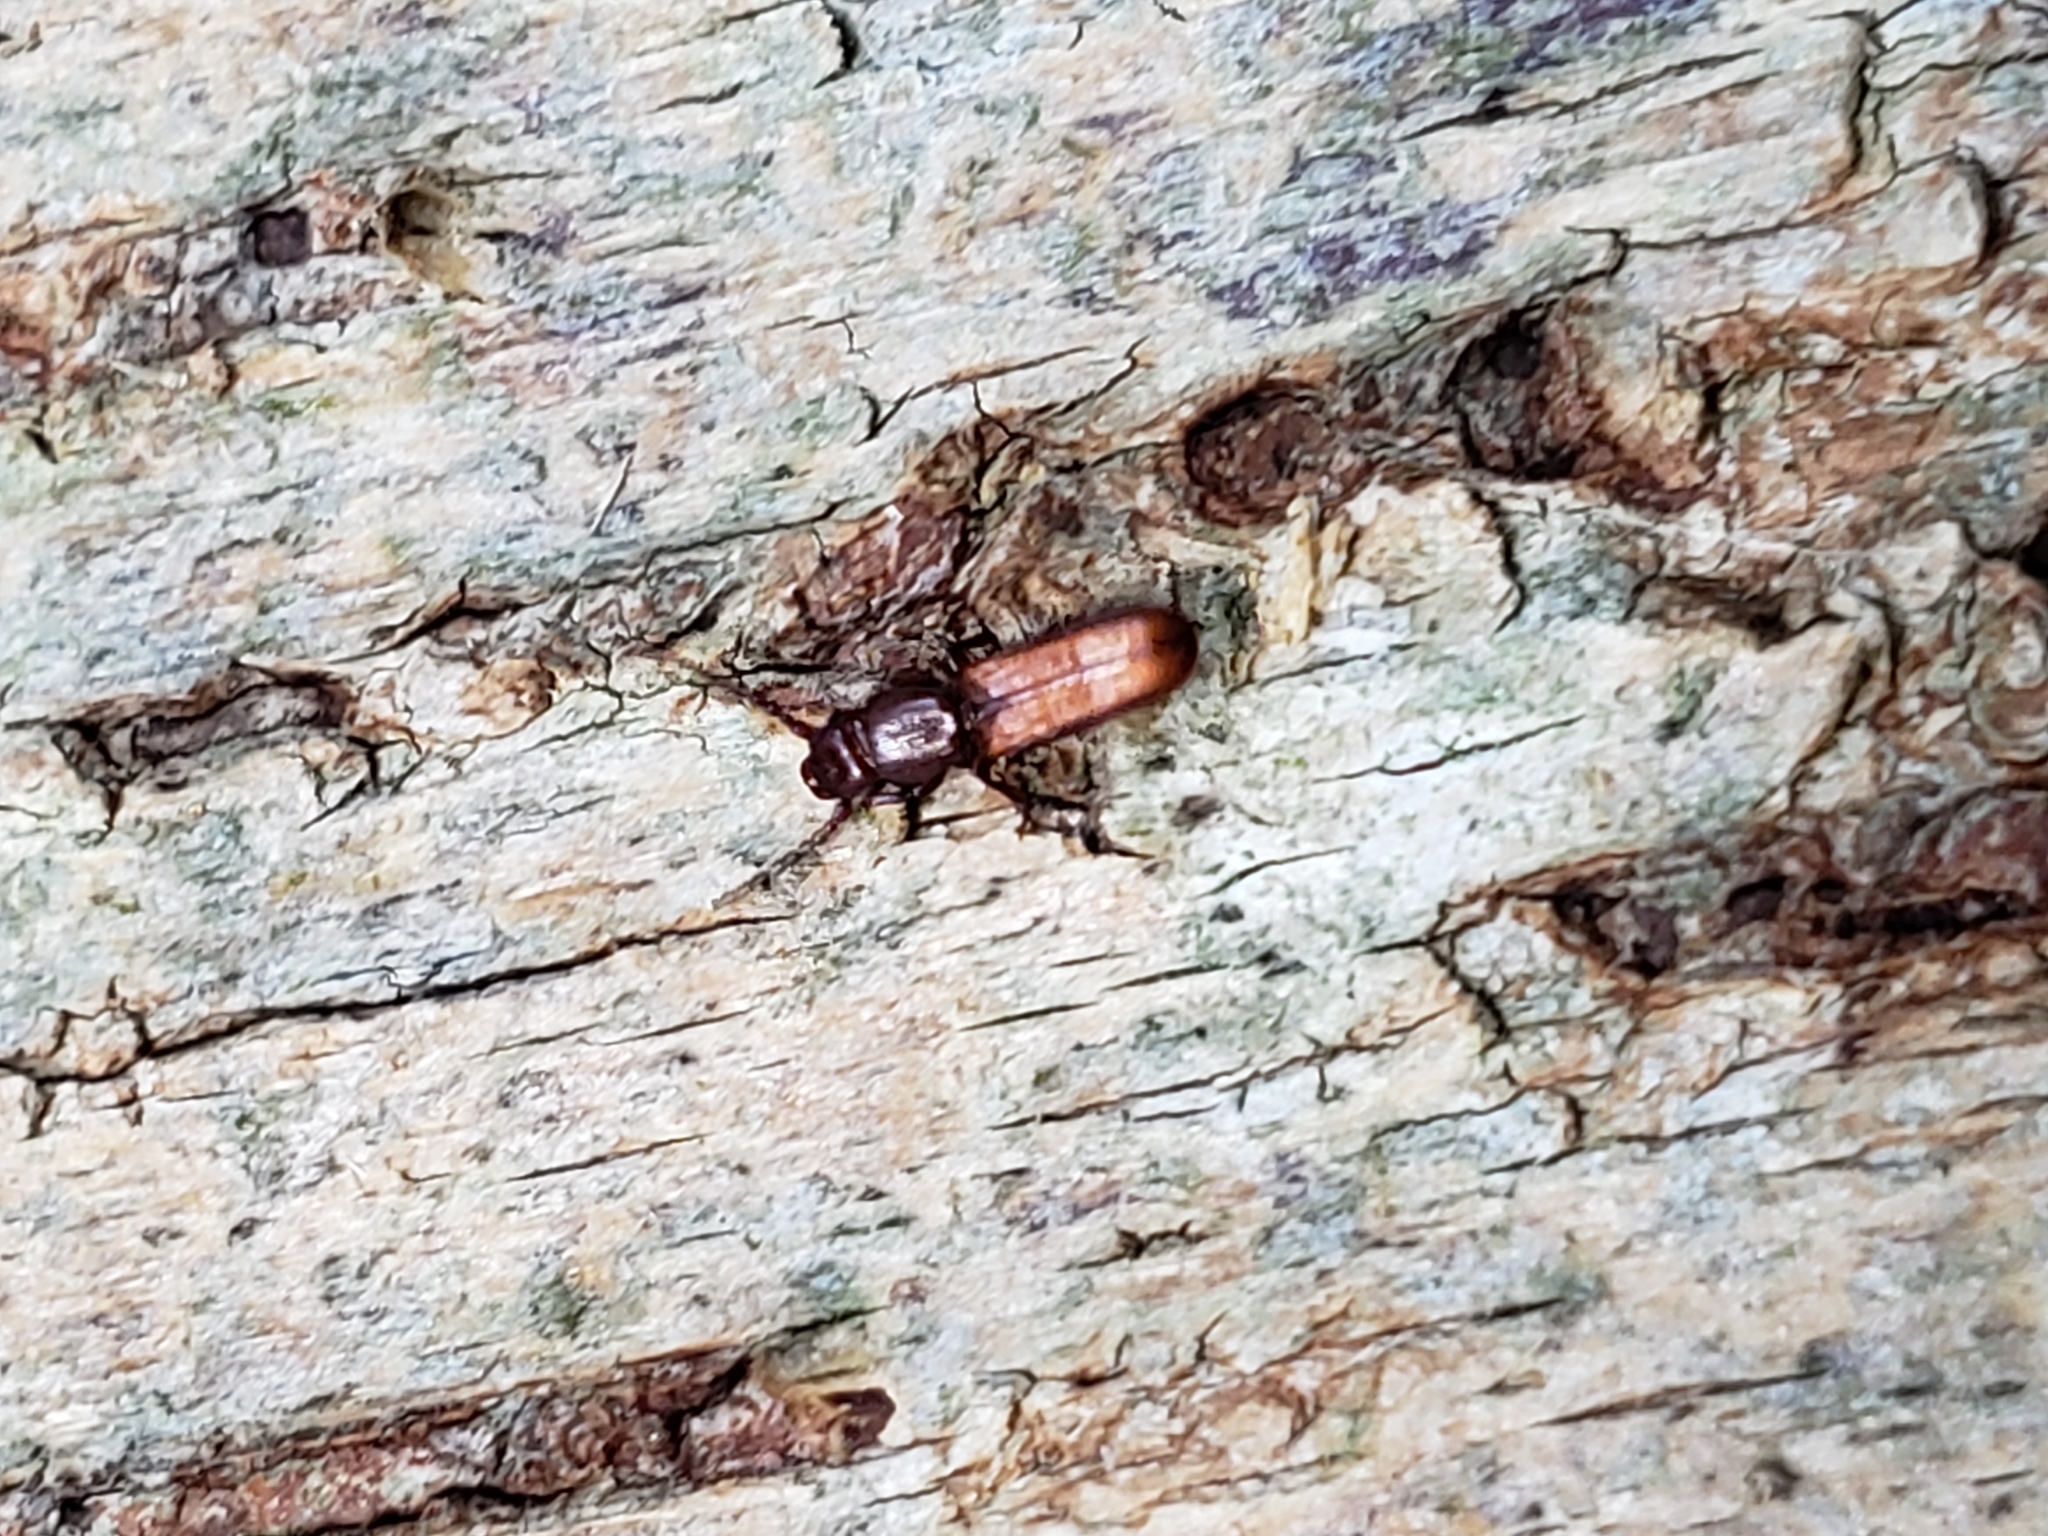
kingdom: Animalia
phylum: Arthropoda
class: Insecta
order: Coleoptera
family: Passandridae
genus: Catogenus
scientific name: Catogenus rufus
